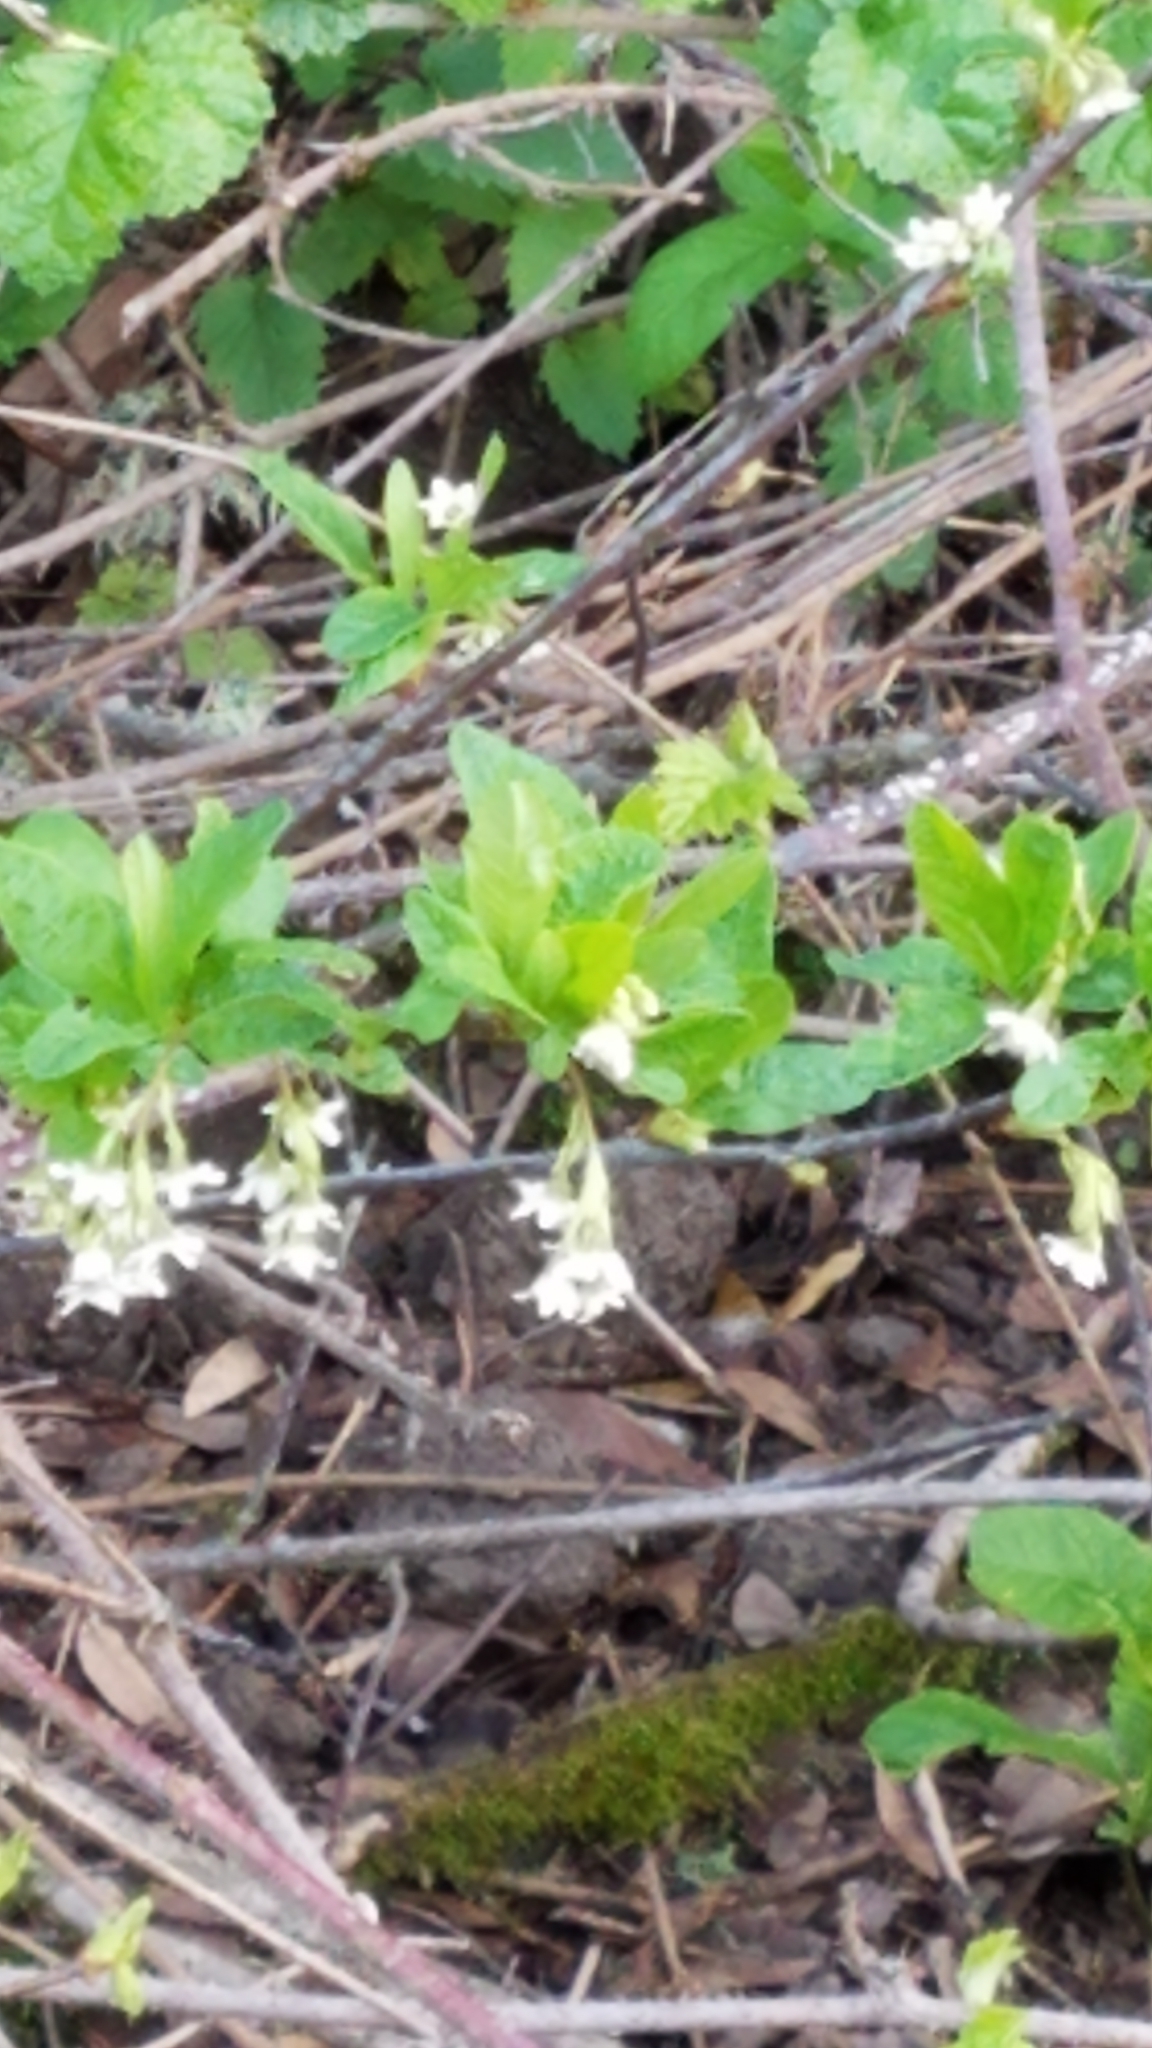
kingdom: Plantae
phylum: Tracheophyta
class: Magnoliopsida
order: Rosales
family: Rosaceae
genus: Oemleria
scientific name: Oemleria cerasiformis
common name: Osoberry
